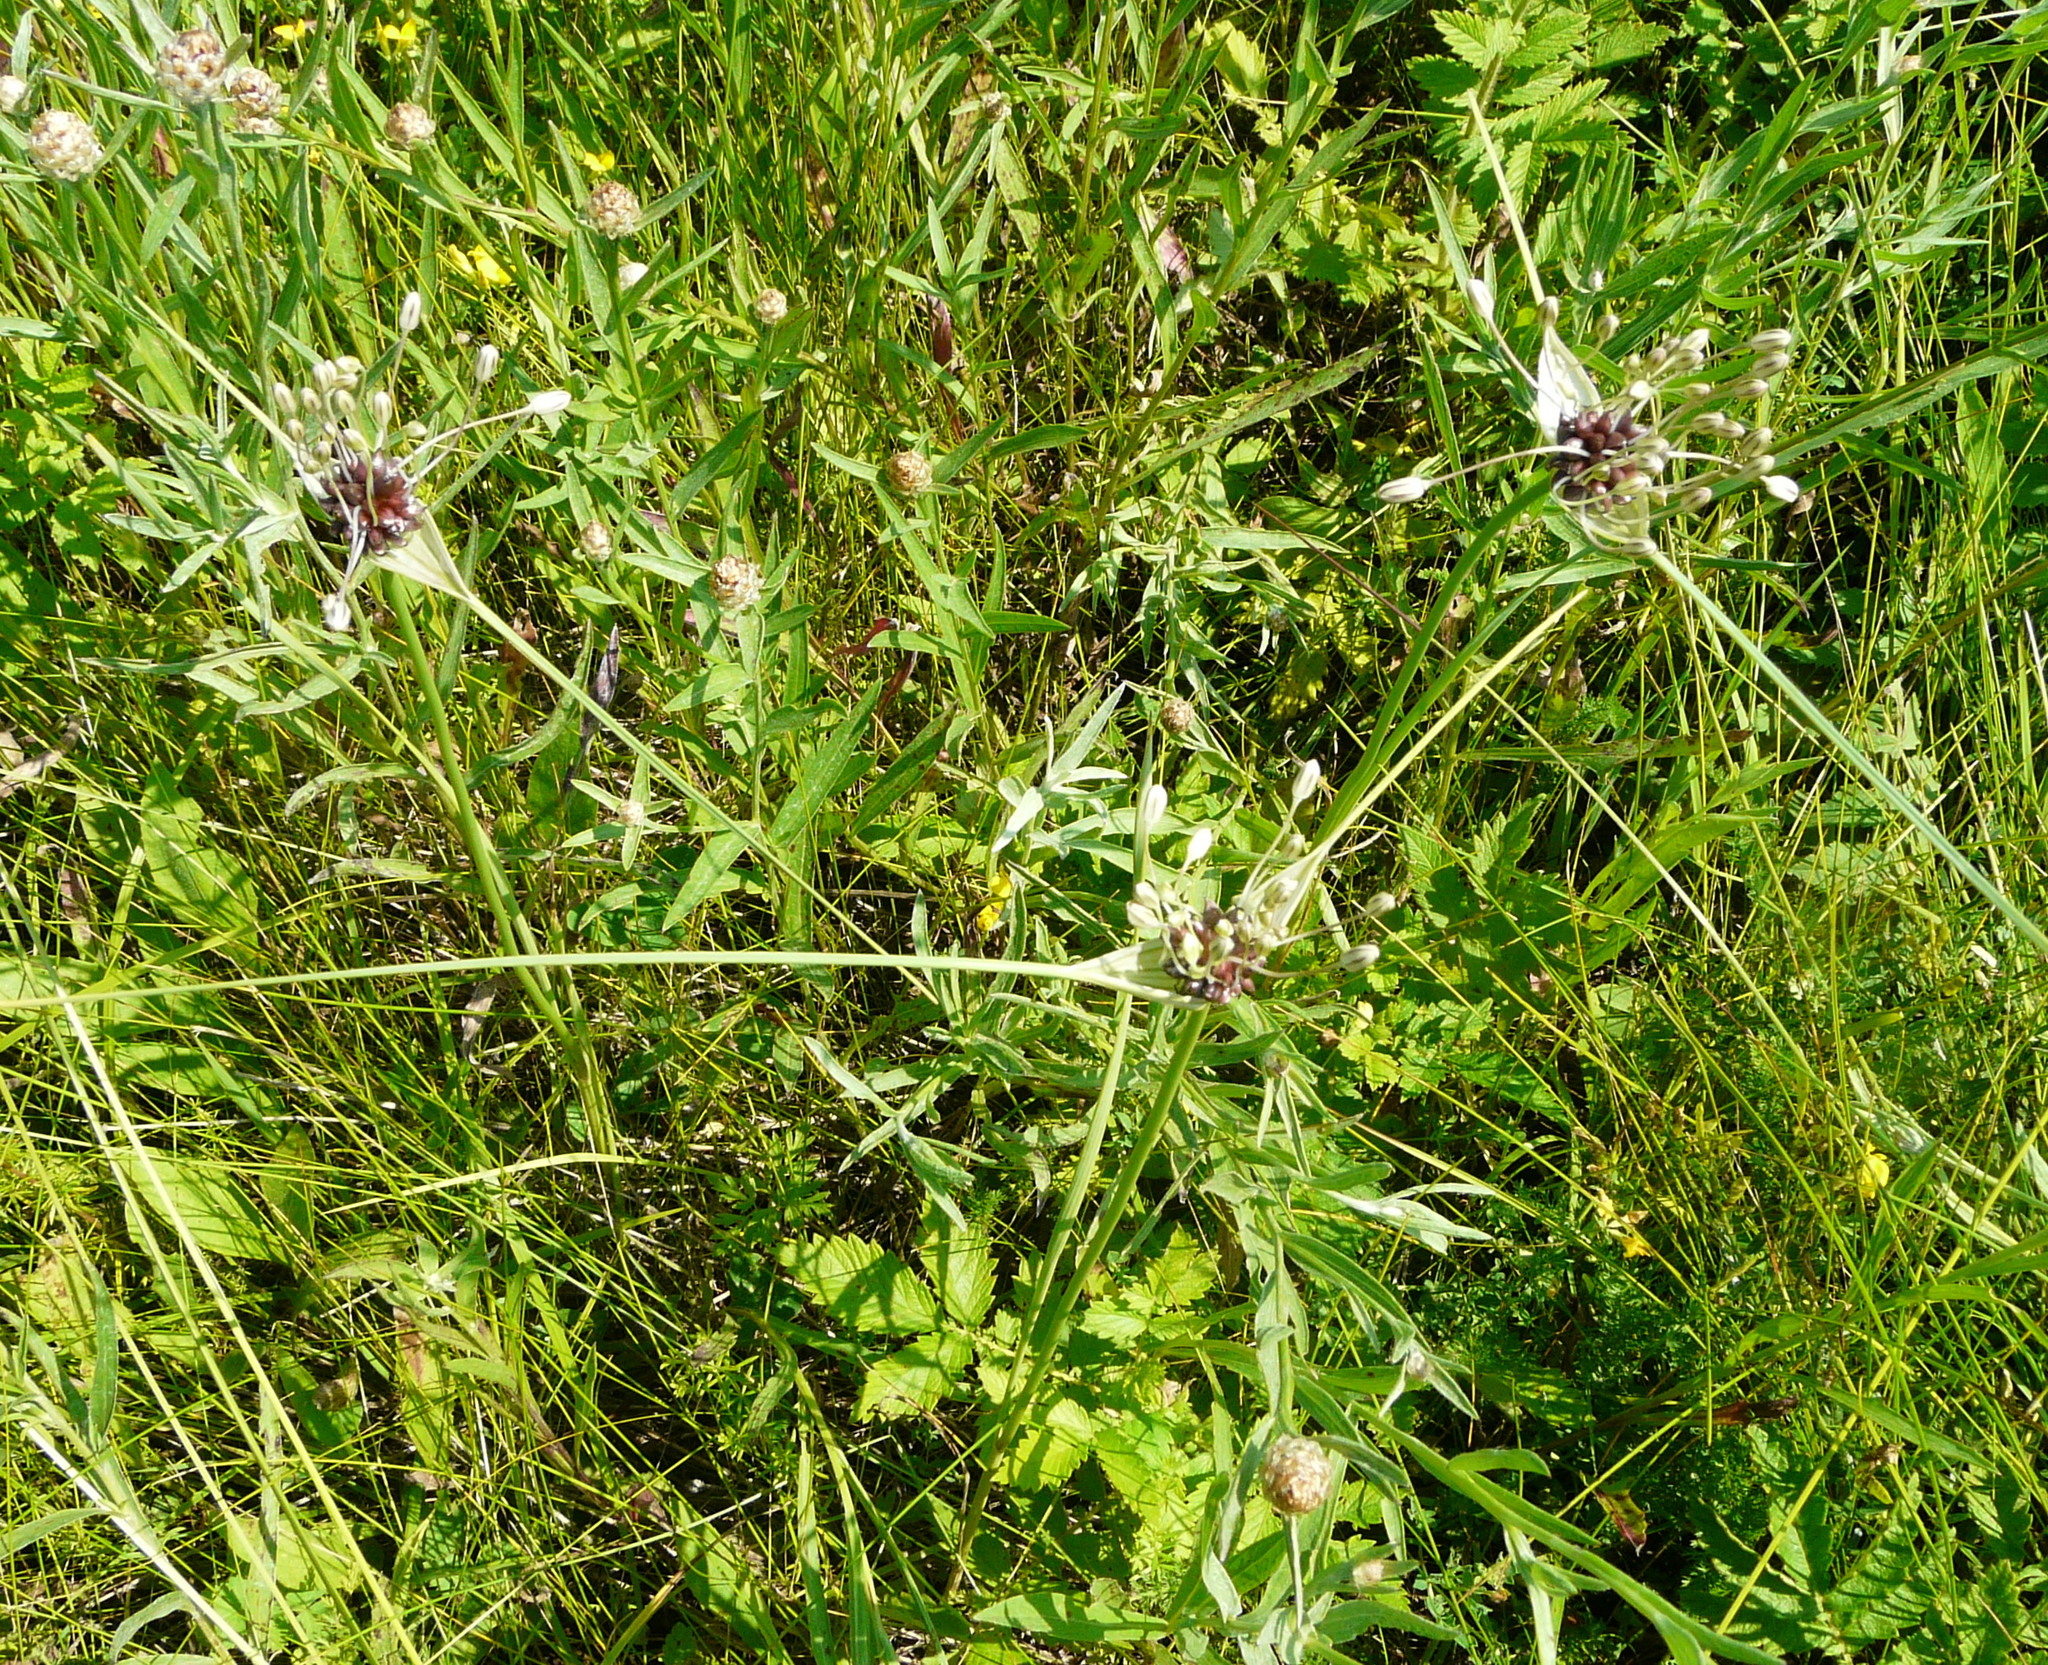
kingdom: Plantae
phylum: Tracheophyta
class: Liliopsida
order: Asparagales
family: Amaryllidaceae
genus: Allium
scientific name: Allium oleraceum
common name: Field garlic
